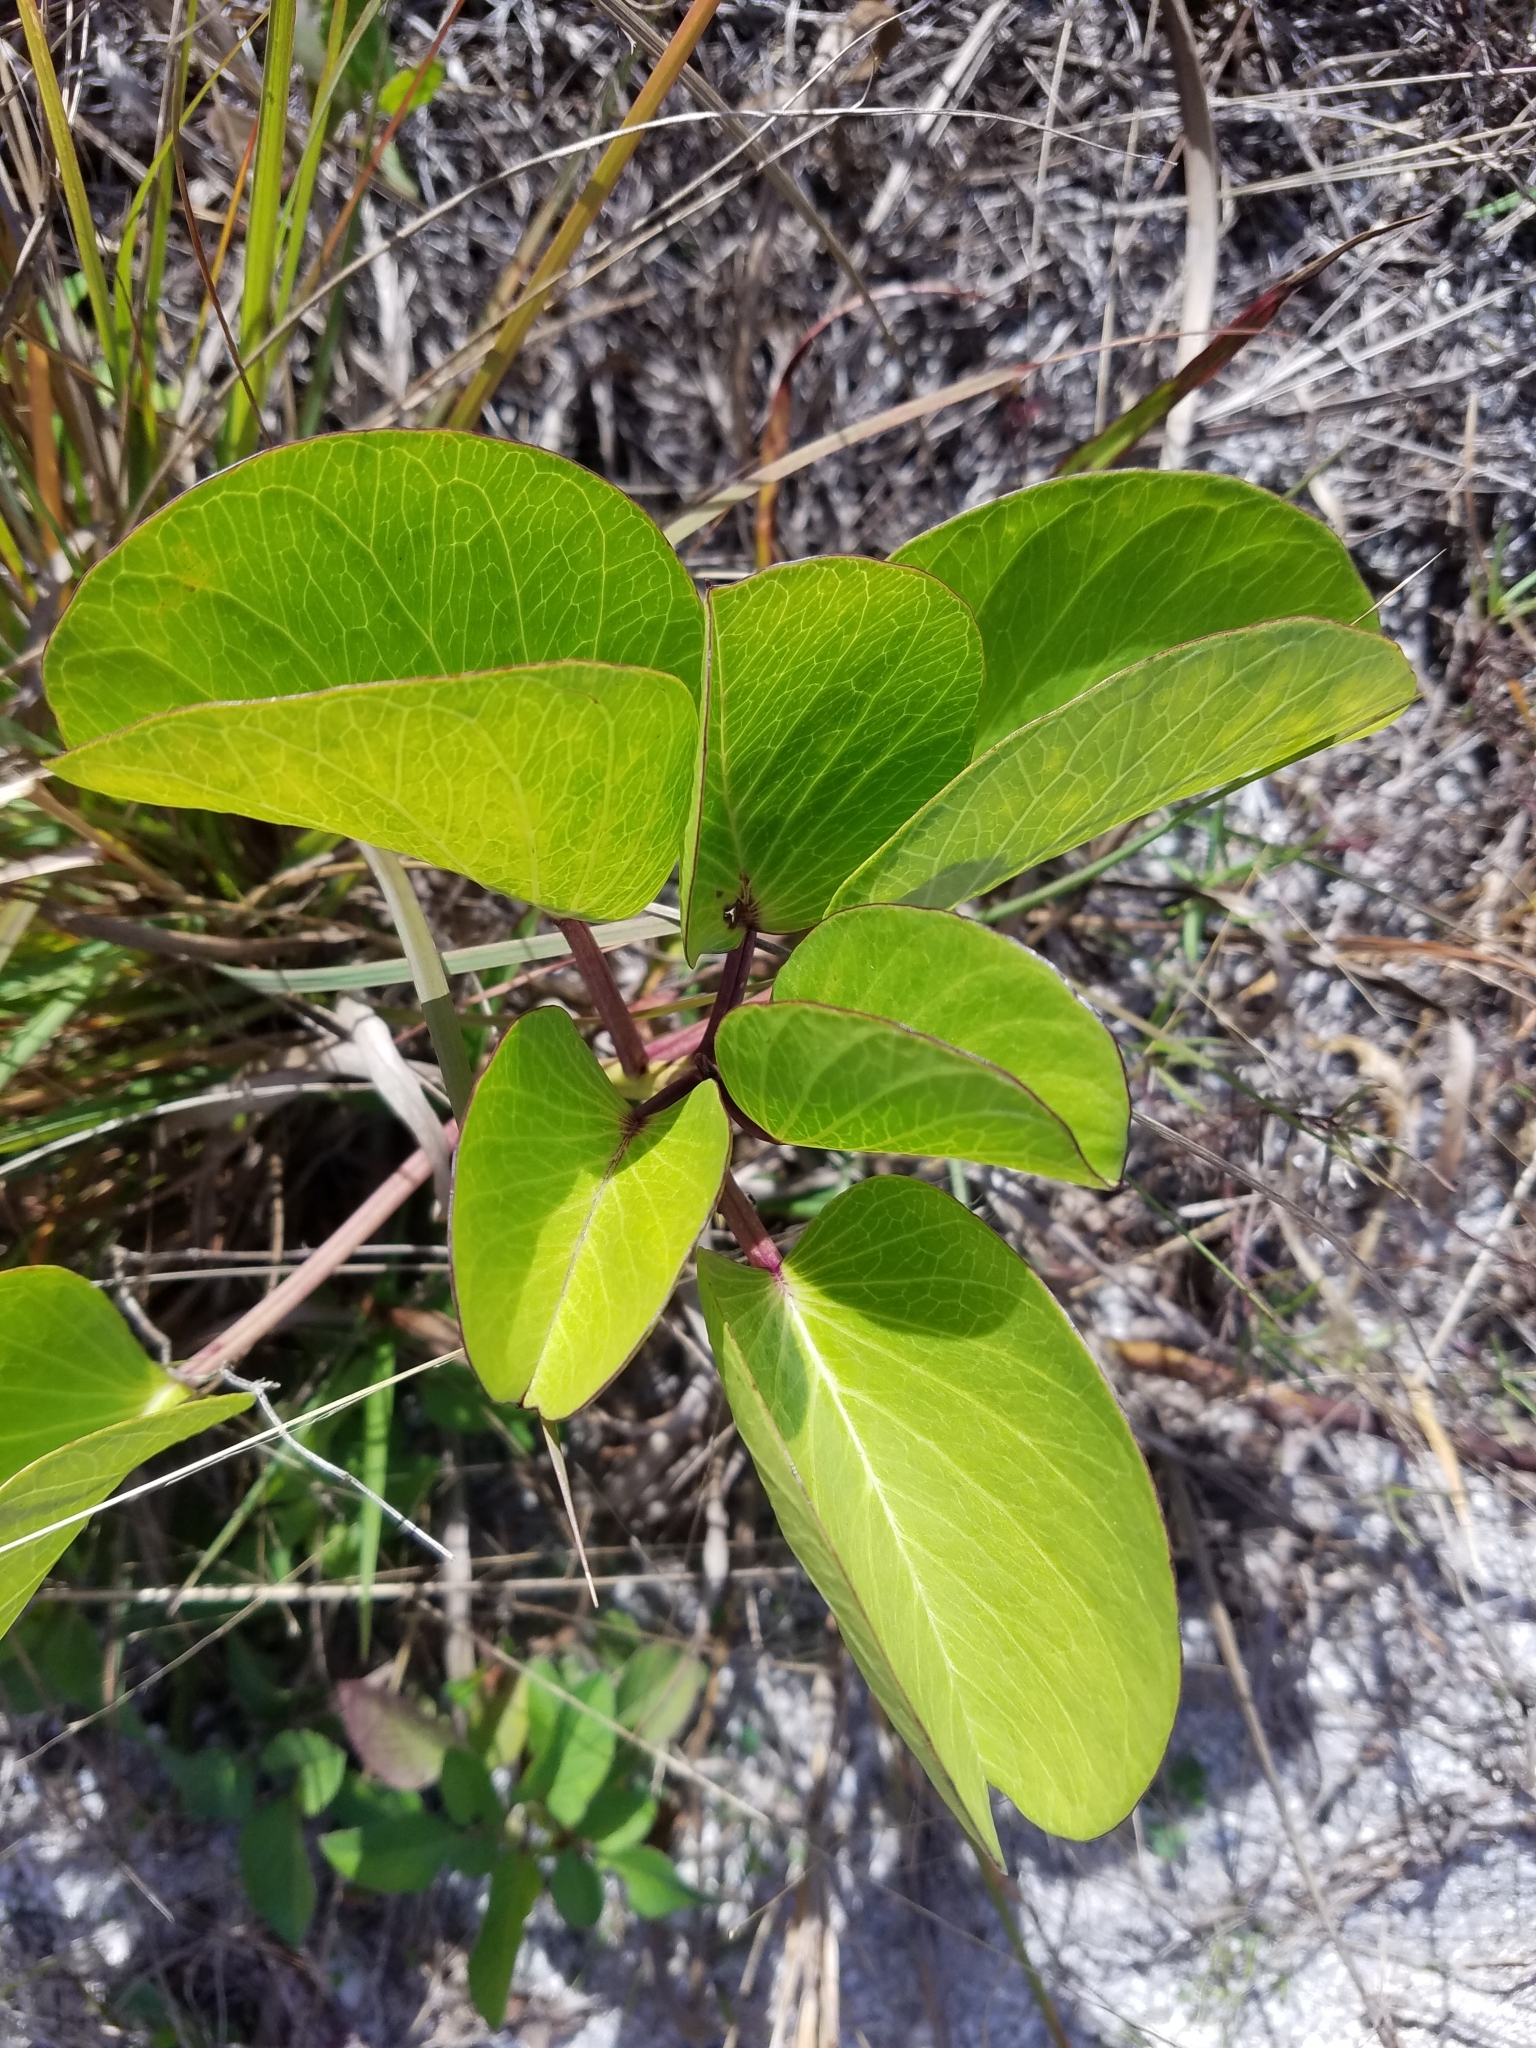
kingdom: Plantae
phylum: Tracheophyta
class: Magnoliopsida
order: Solanales
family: Convolvulaceae
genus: Ipomoea
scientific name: Ipomoea pes-caprae
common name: Beach morning glory
